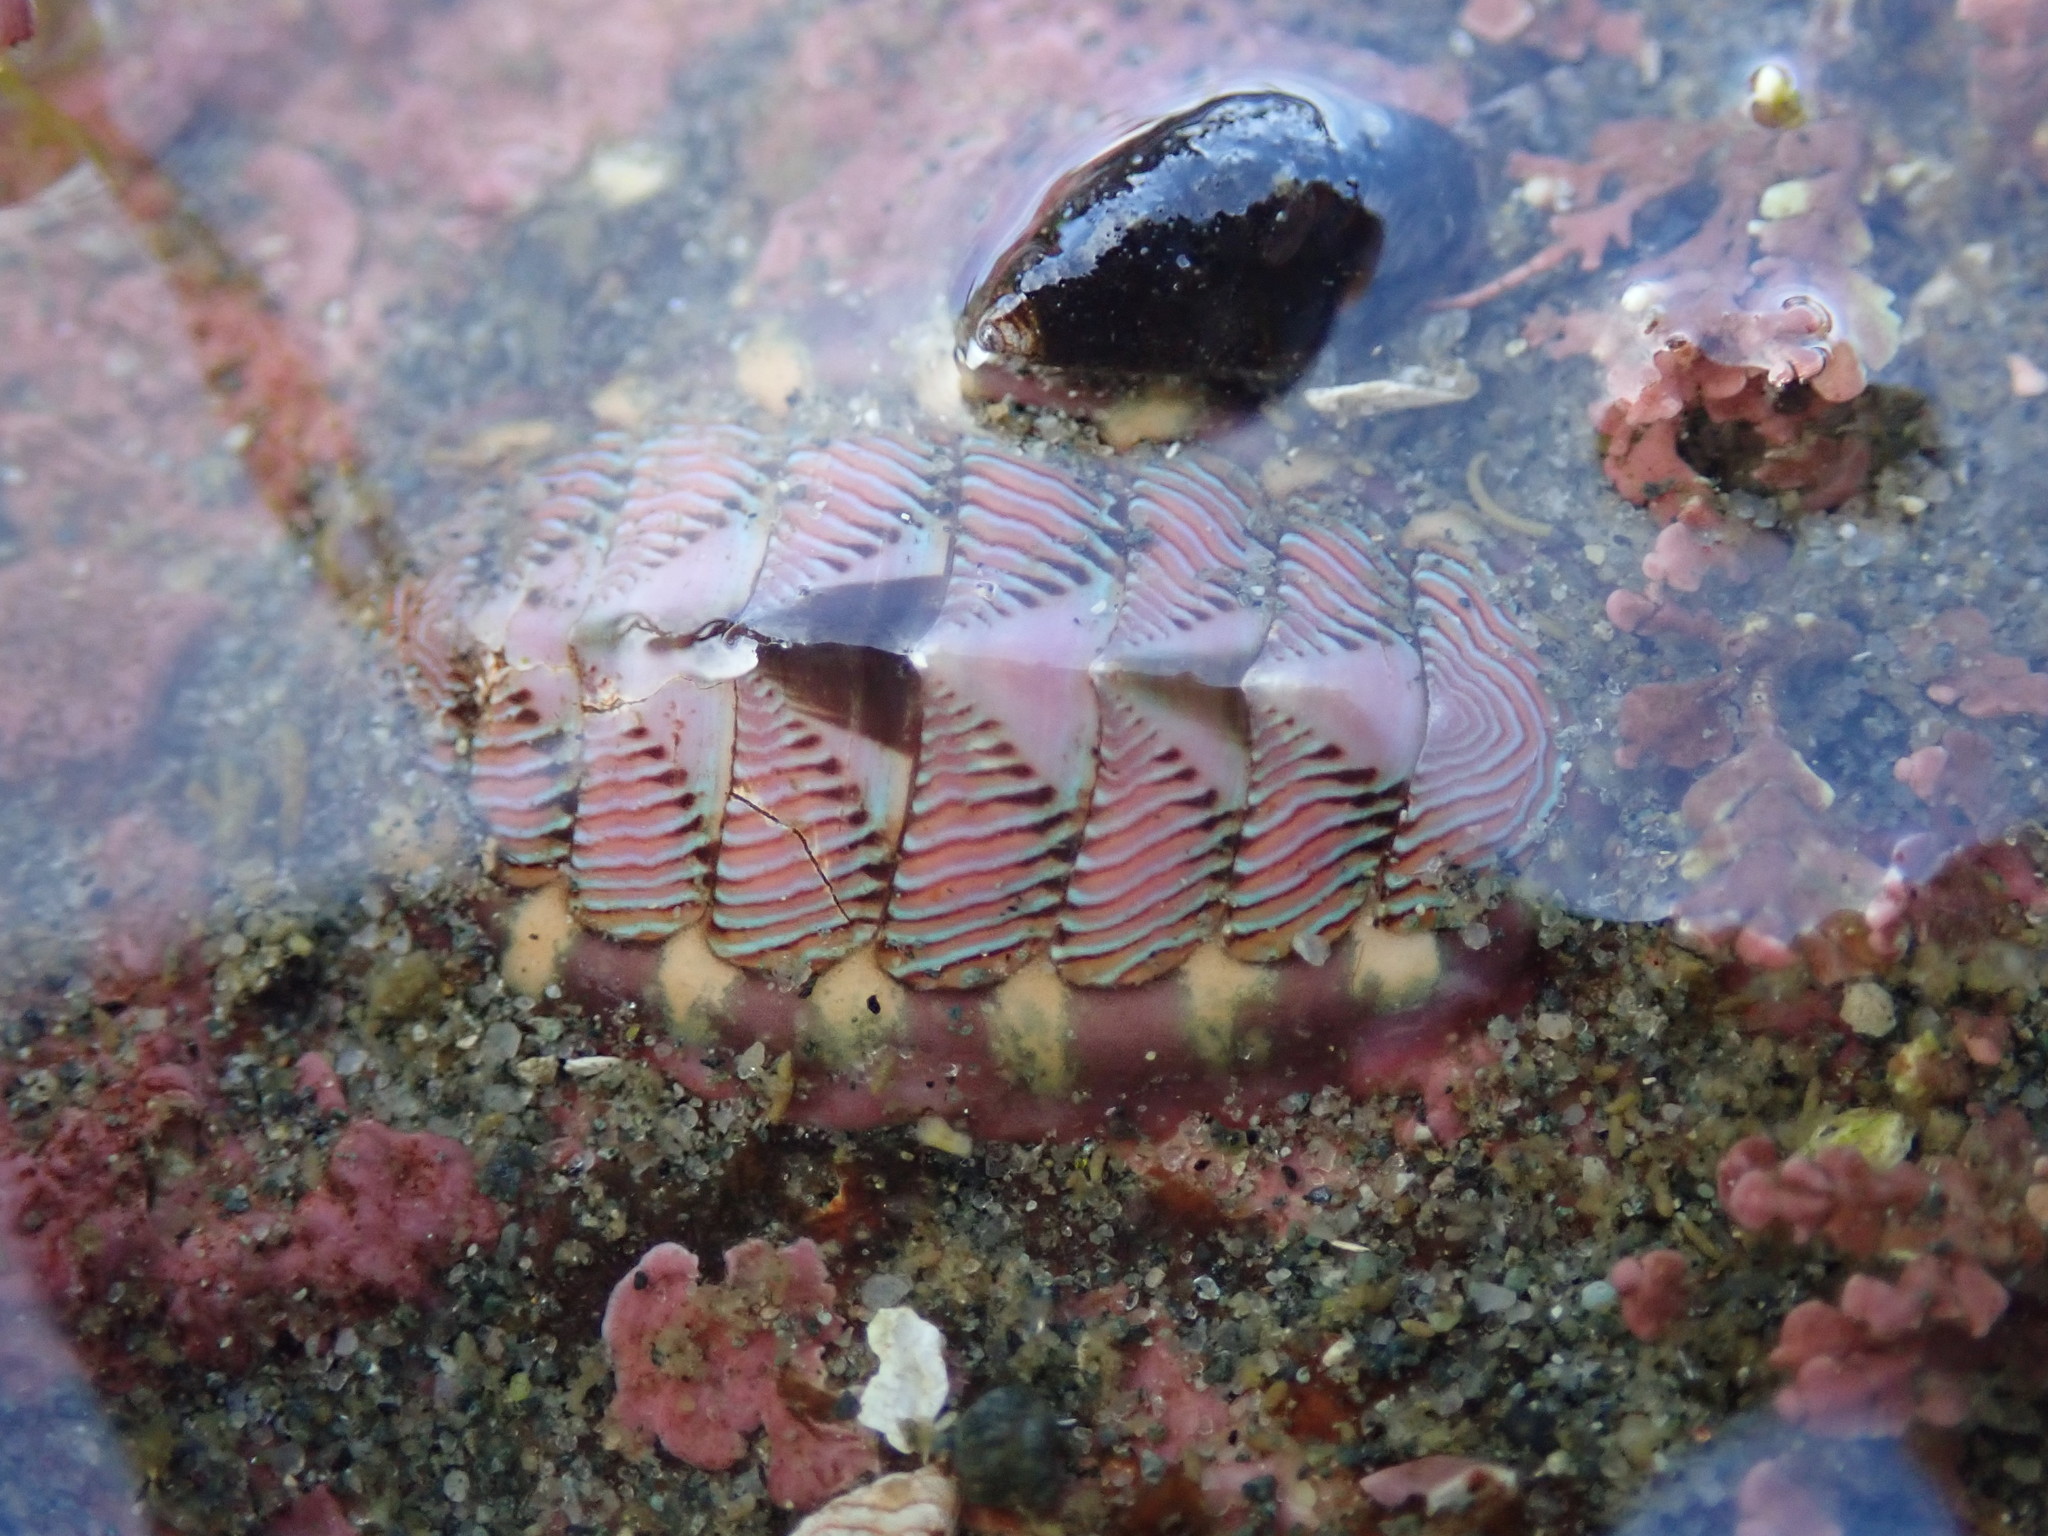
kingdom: Animalia
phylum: Mollusca
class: Polyplacophora
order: Chitonida
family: Tonicellidae
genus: Tonicella
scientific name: Tonicella lineata
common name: Lined chiton
